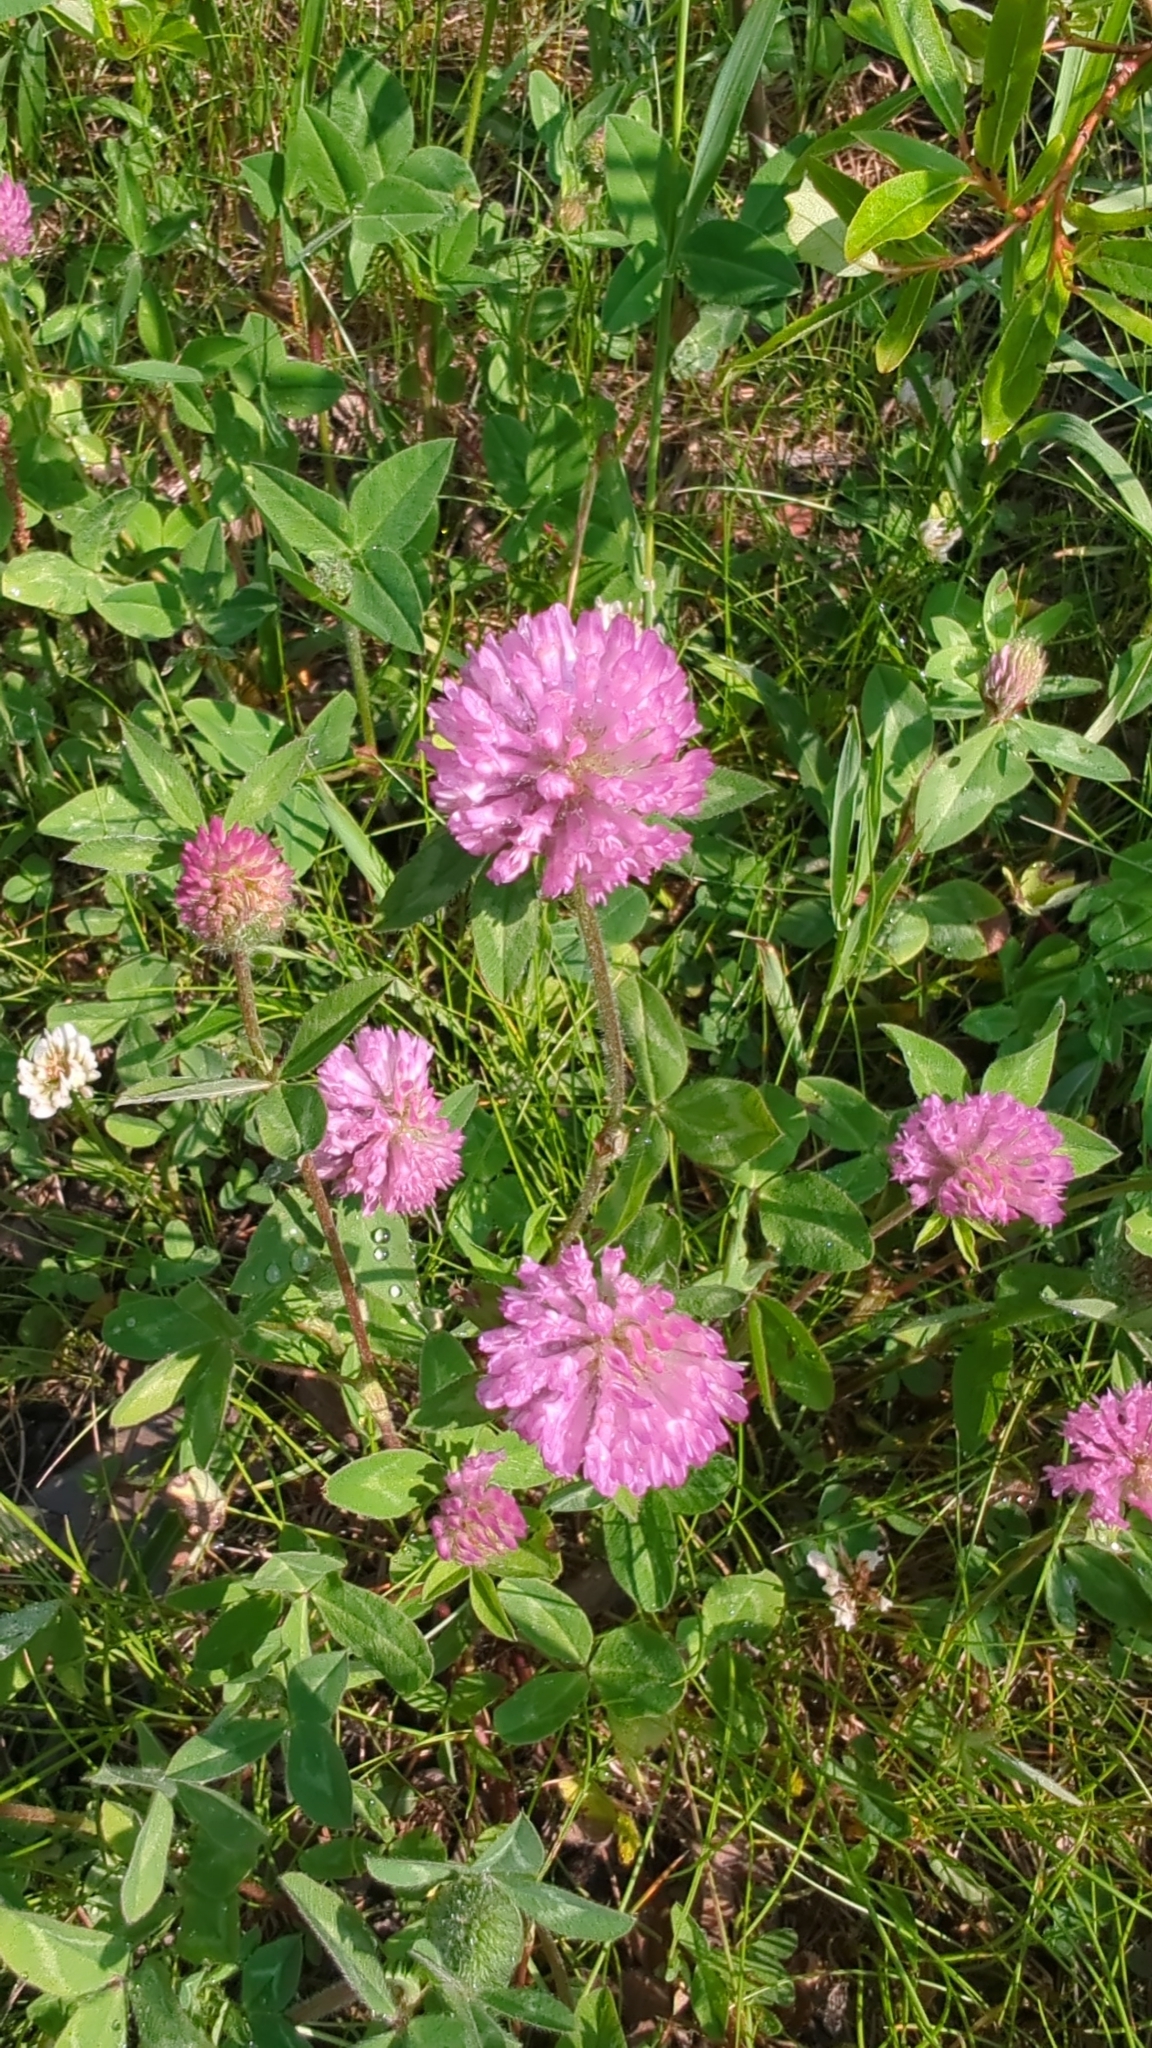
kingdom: Plantae
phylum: Tracheophyta
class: Magnoliopsida
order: Fabales
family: Fabaceae
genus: Trifolium
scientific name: Trifolium pratense
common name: Red clover
